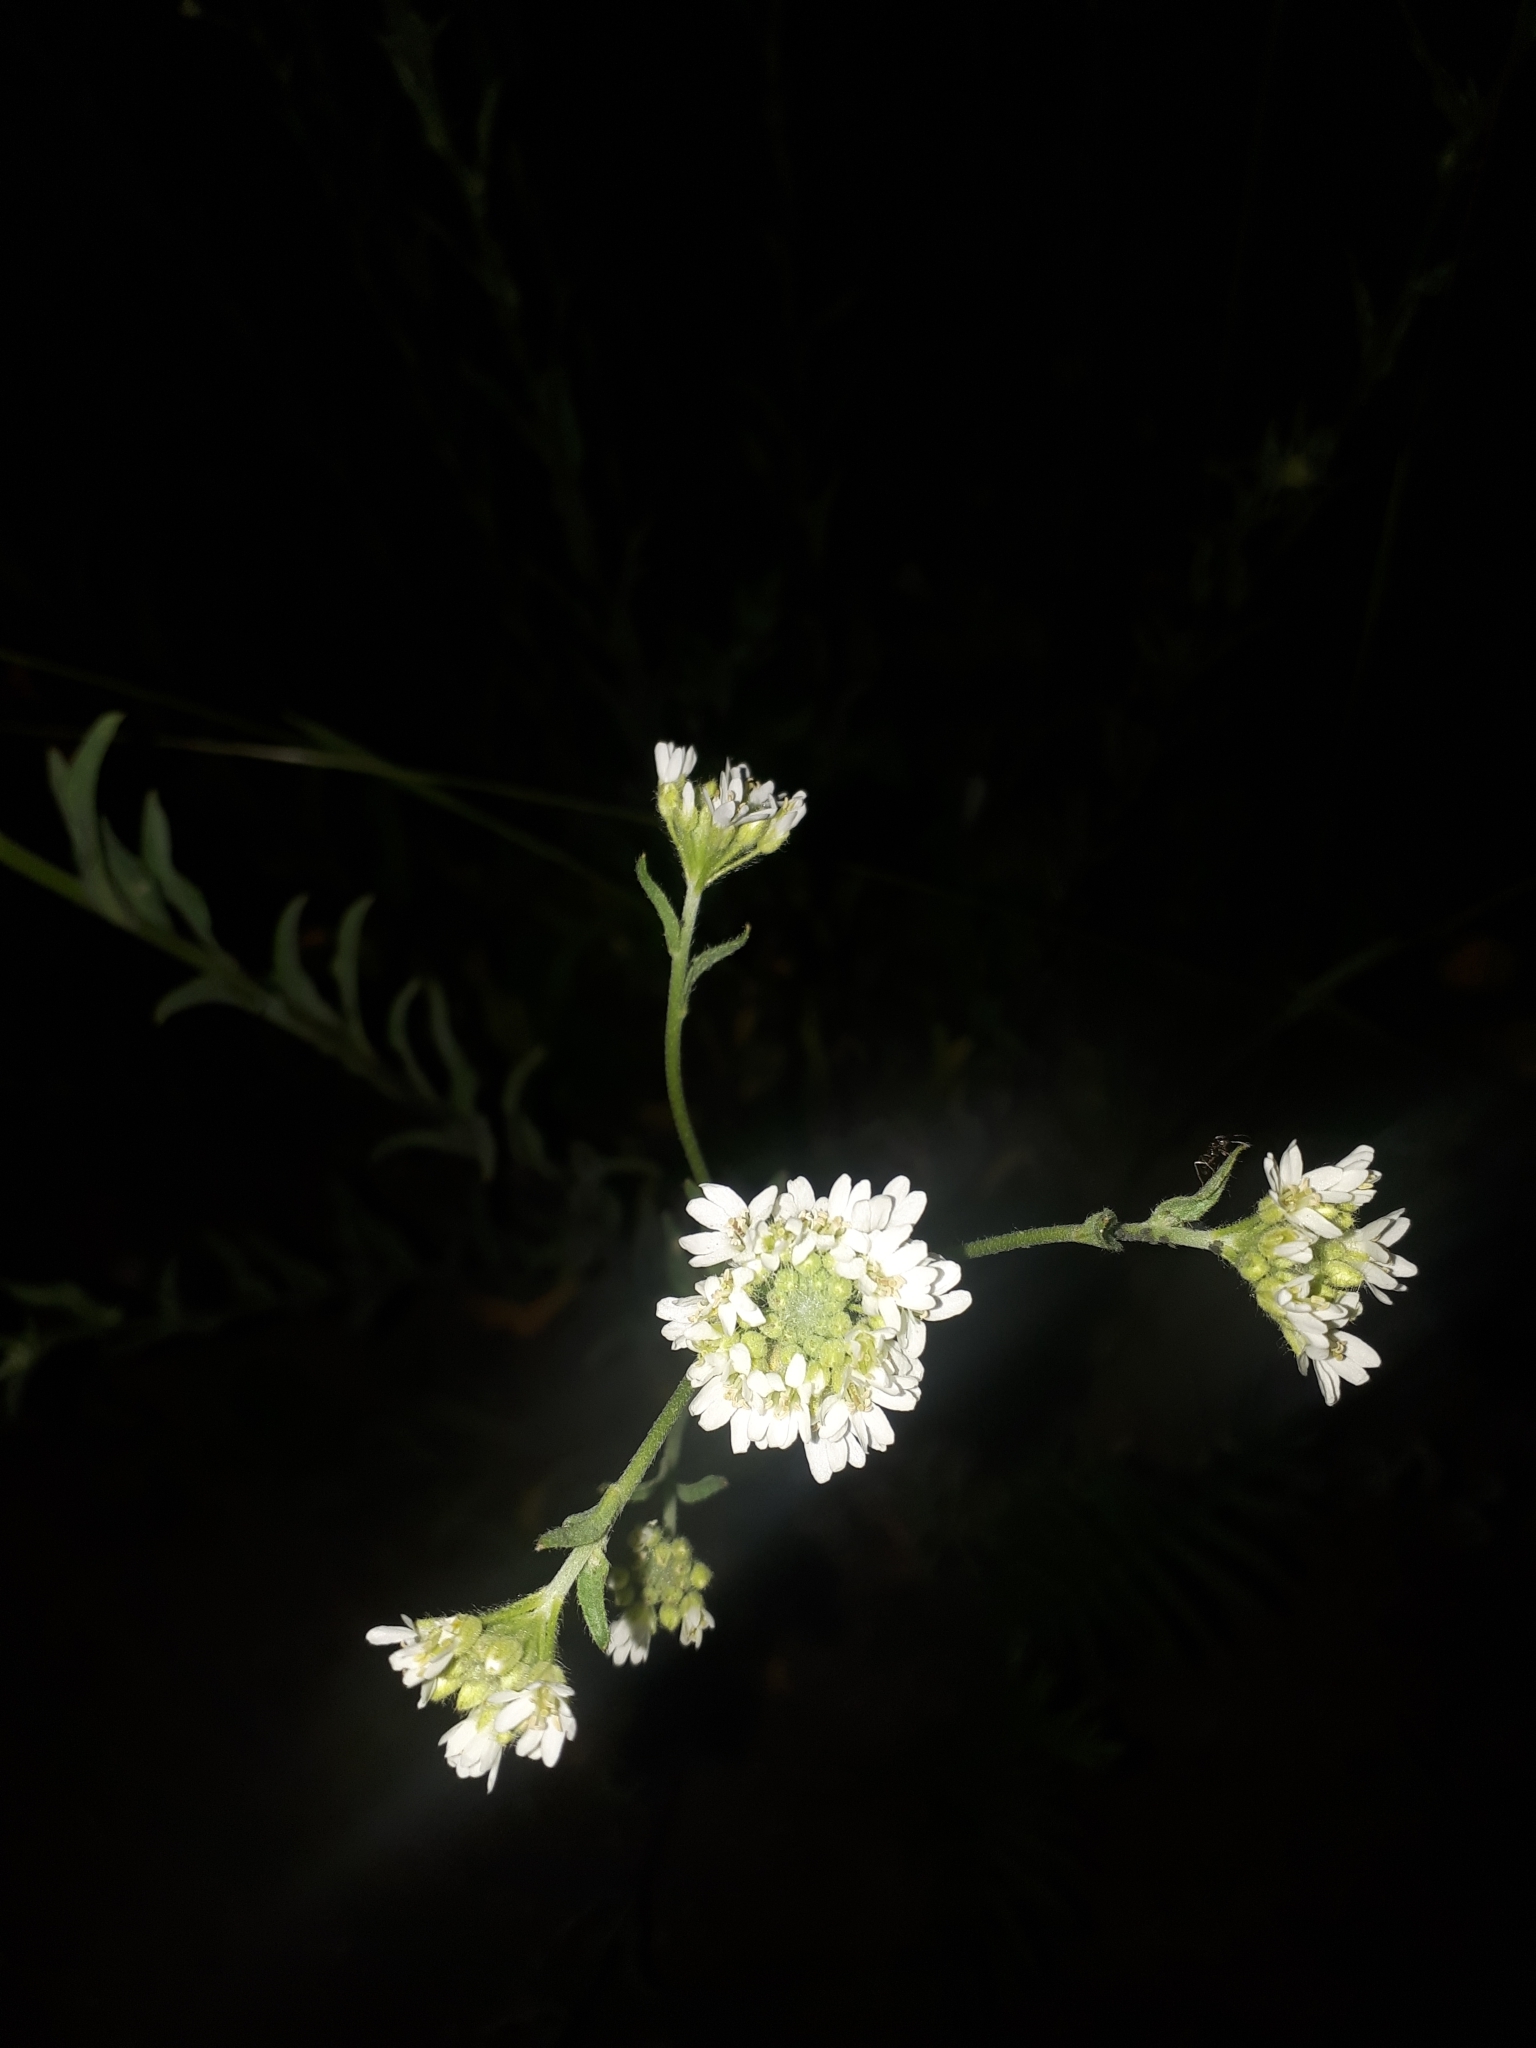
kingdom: Plantae
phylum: Tracheophyta
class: Magnoliopsida
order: Brassicales
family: Brassicaceae
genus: Berteroa
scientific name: Berteroa incana
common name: Hoary alison
